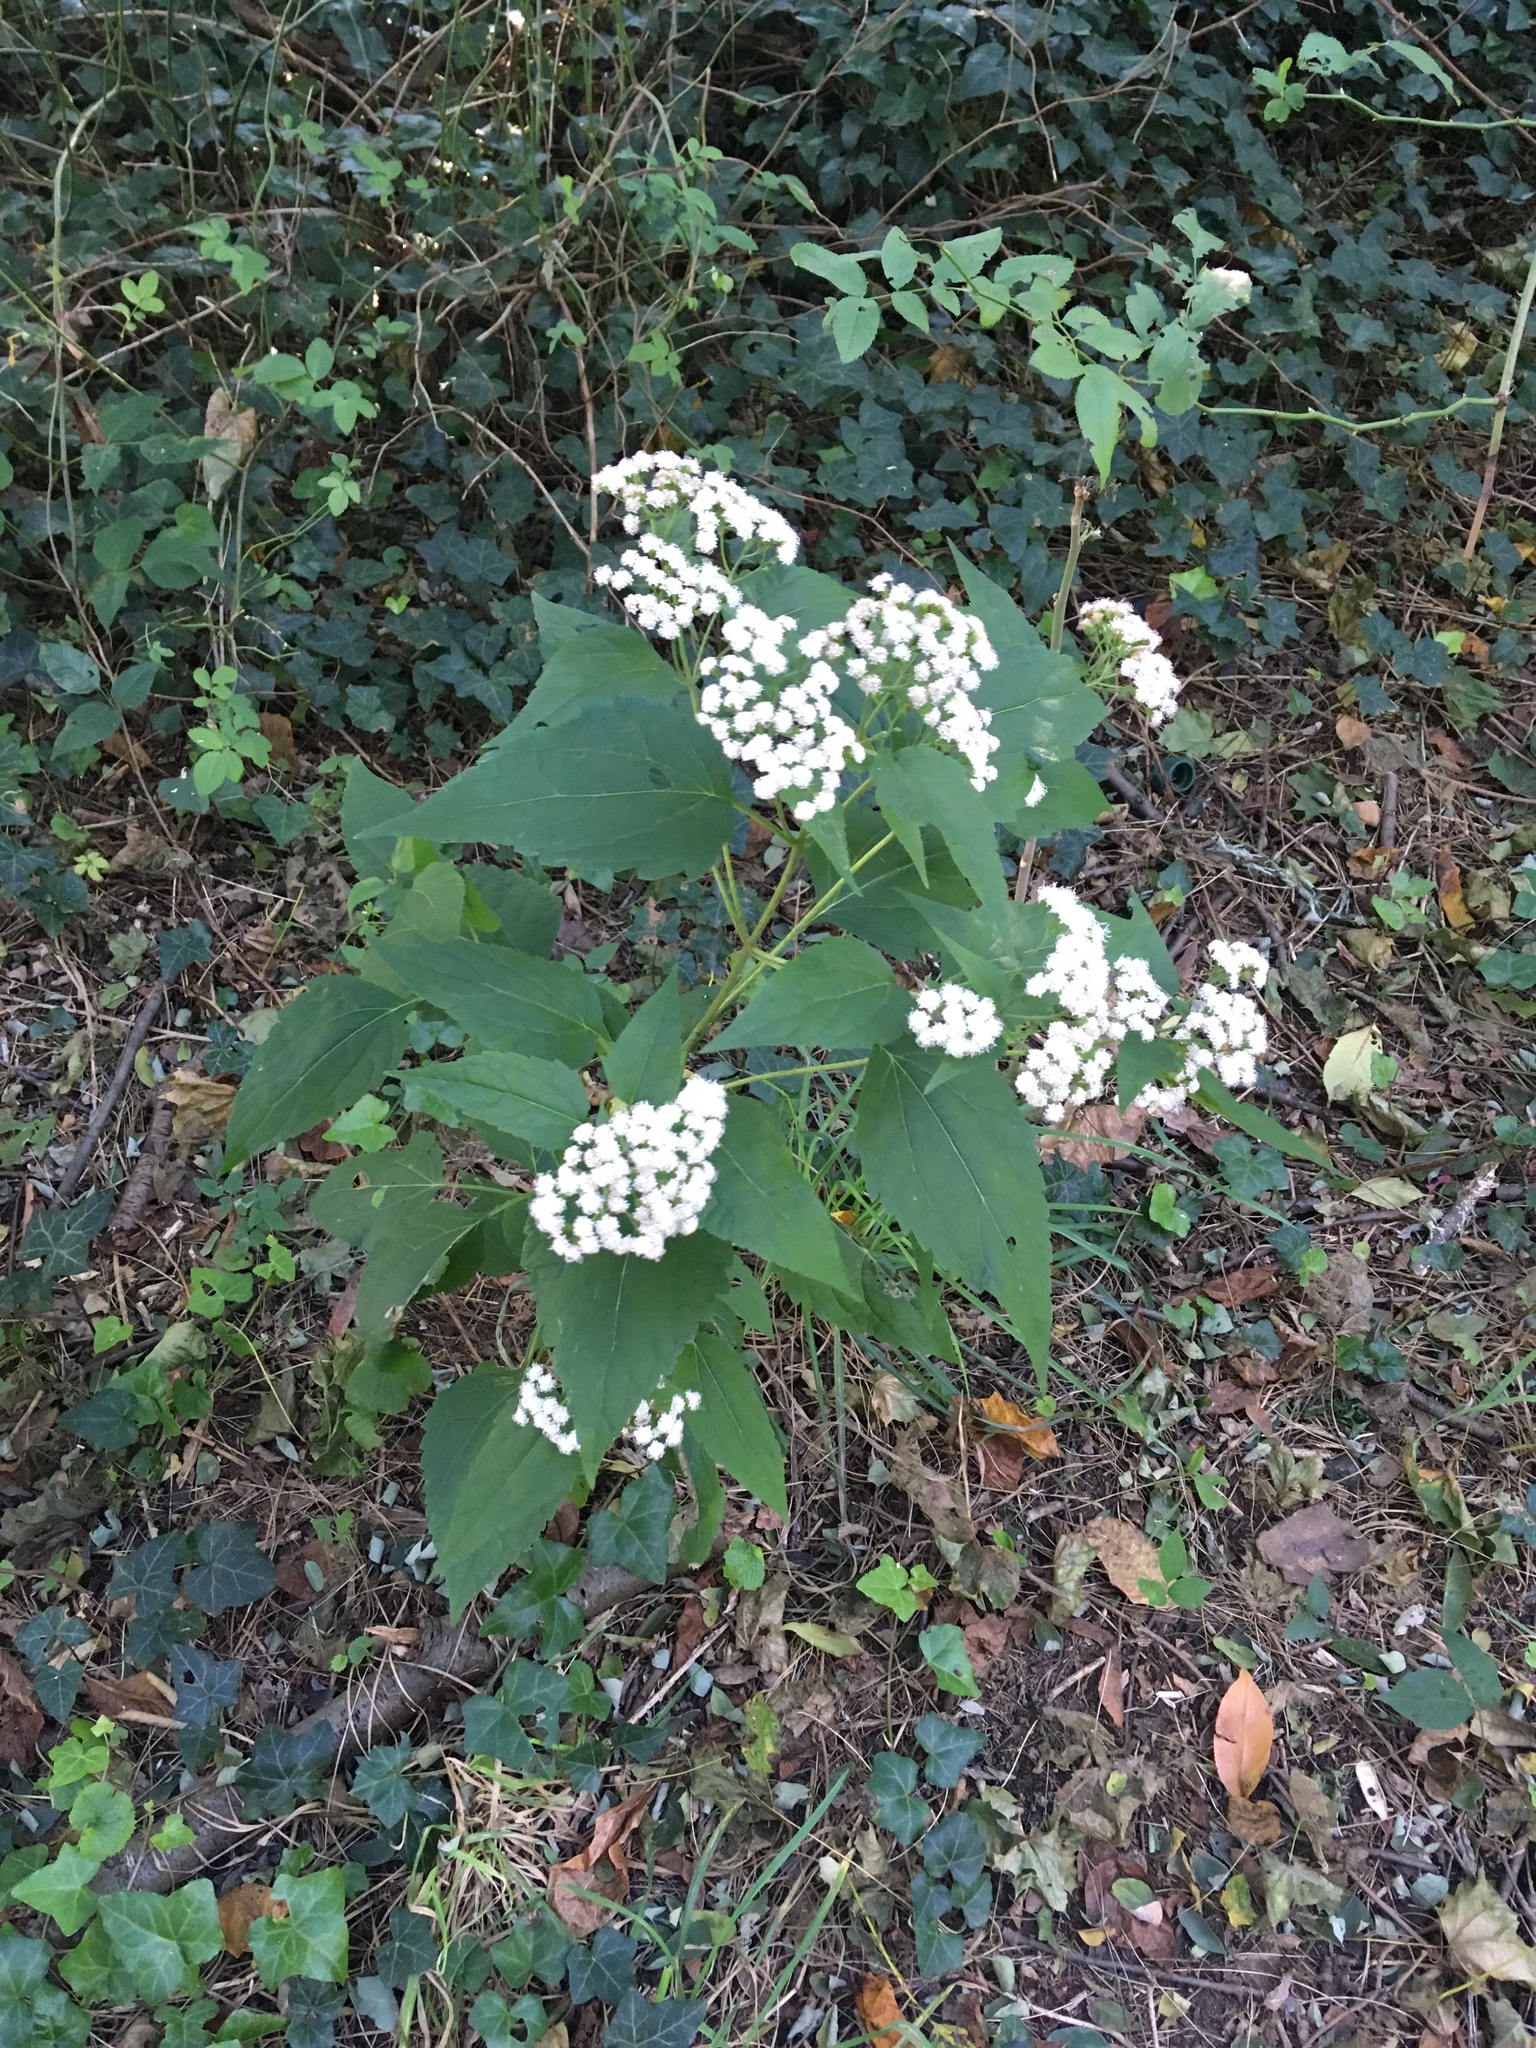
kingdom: Plantae
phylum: Tracheophyta
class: Magnoliopsida
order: Asterales
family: Asteraceae
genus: Ageratina
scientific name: Ageratina altissima
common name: White snakeroot
